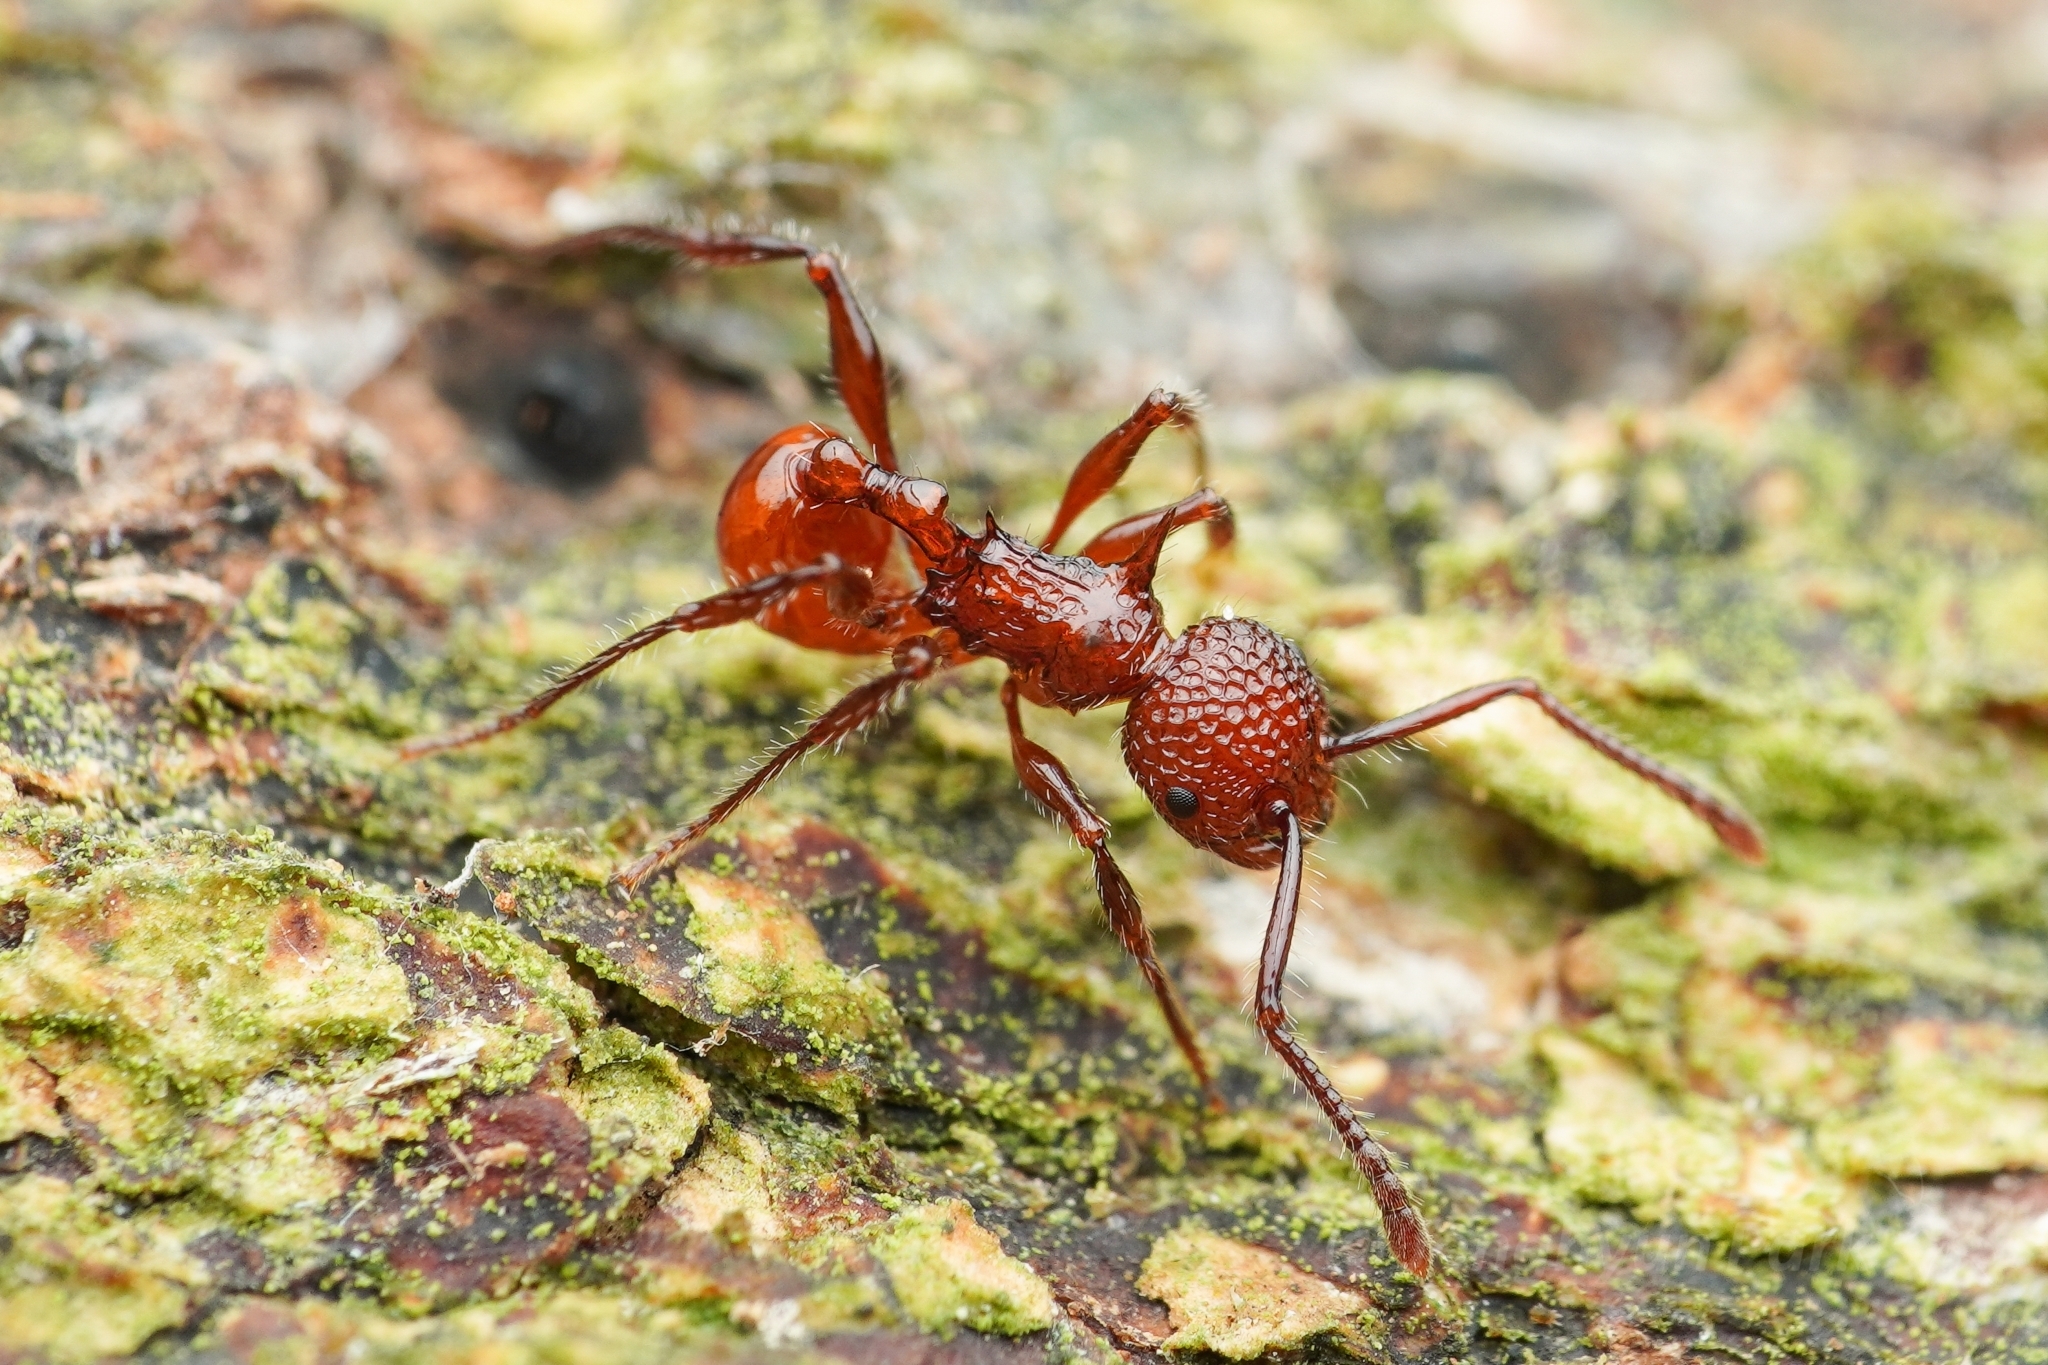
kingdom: Animalia
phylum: Arthropoda
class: Insecta
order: Hymenoptera
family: Formicidae
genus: Pristomyrmex
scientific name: Pristomyrmex trachylissus
